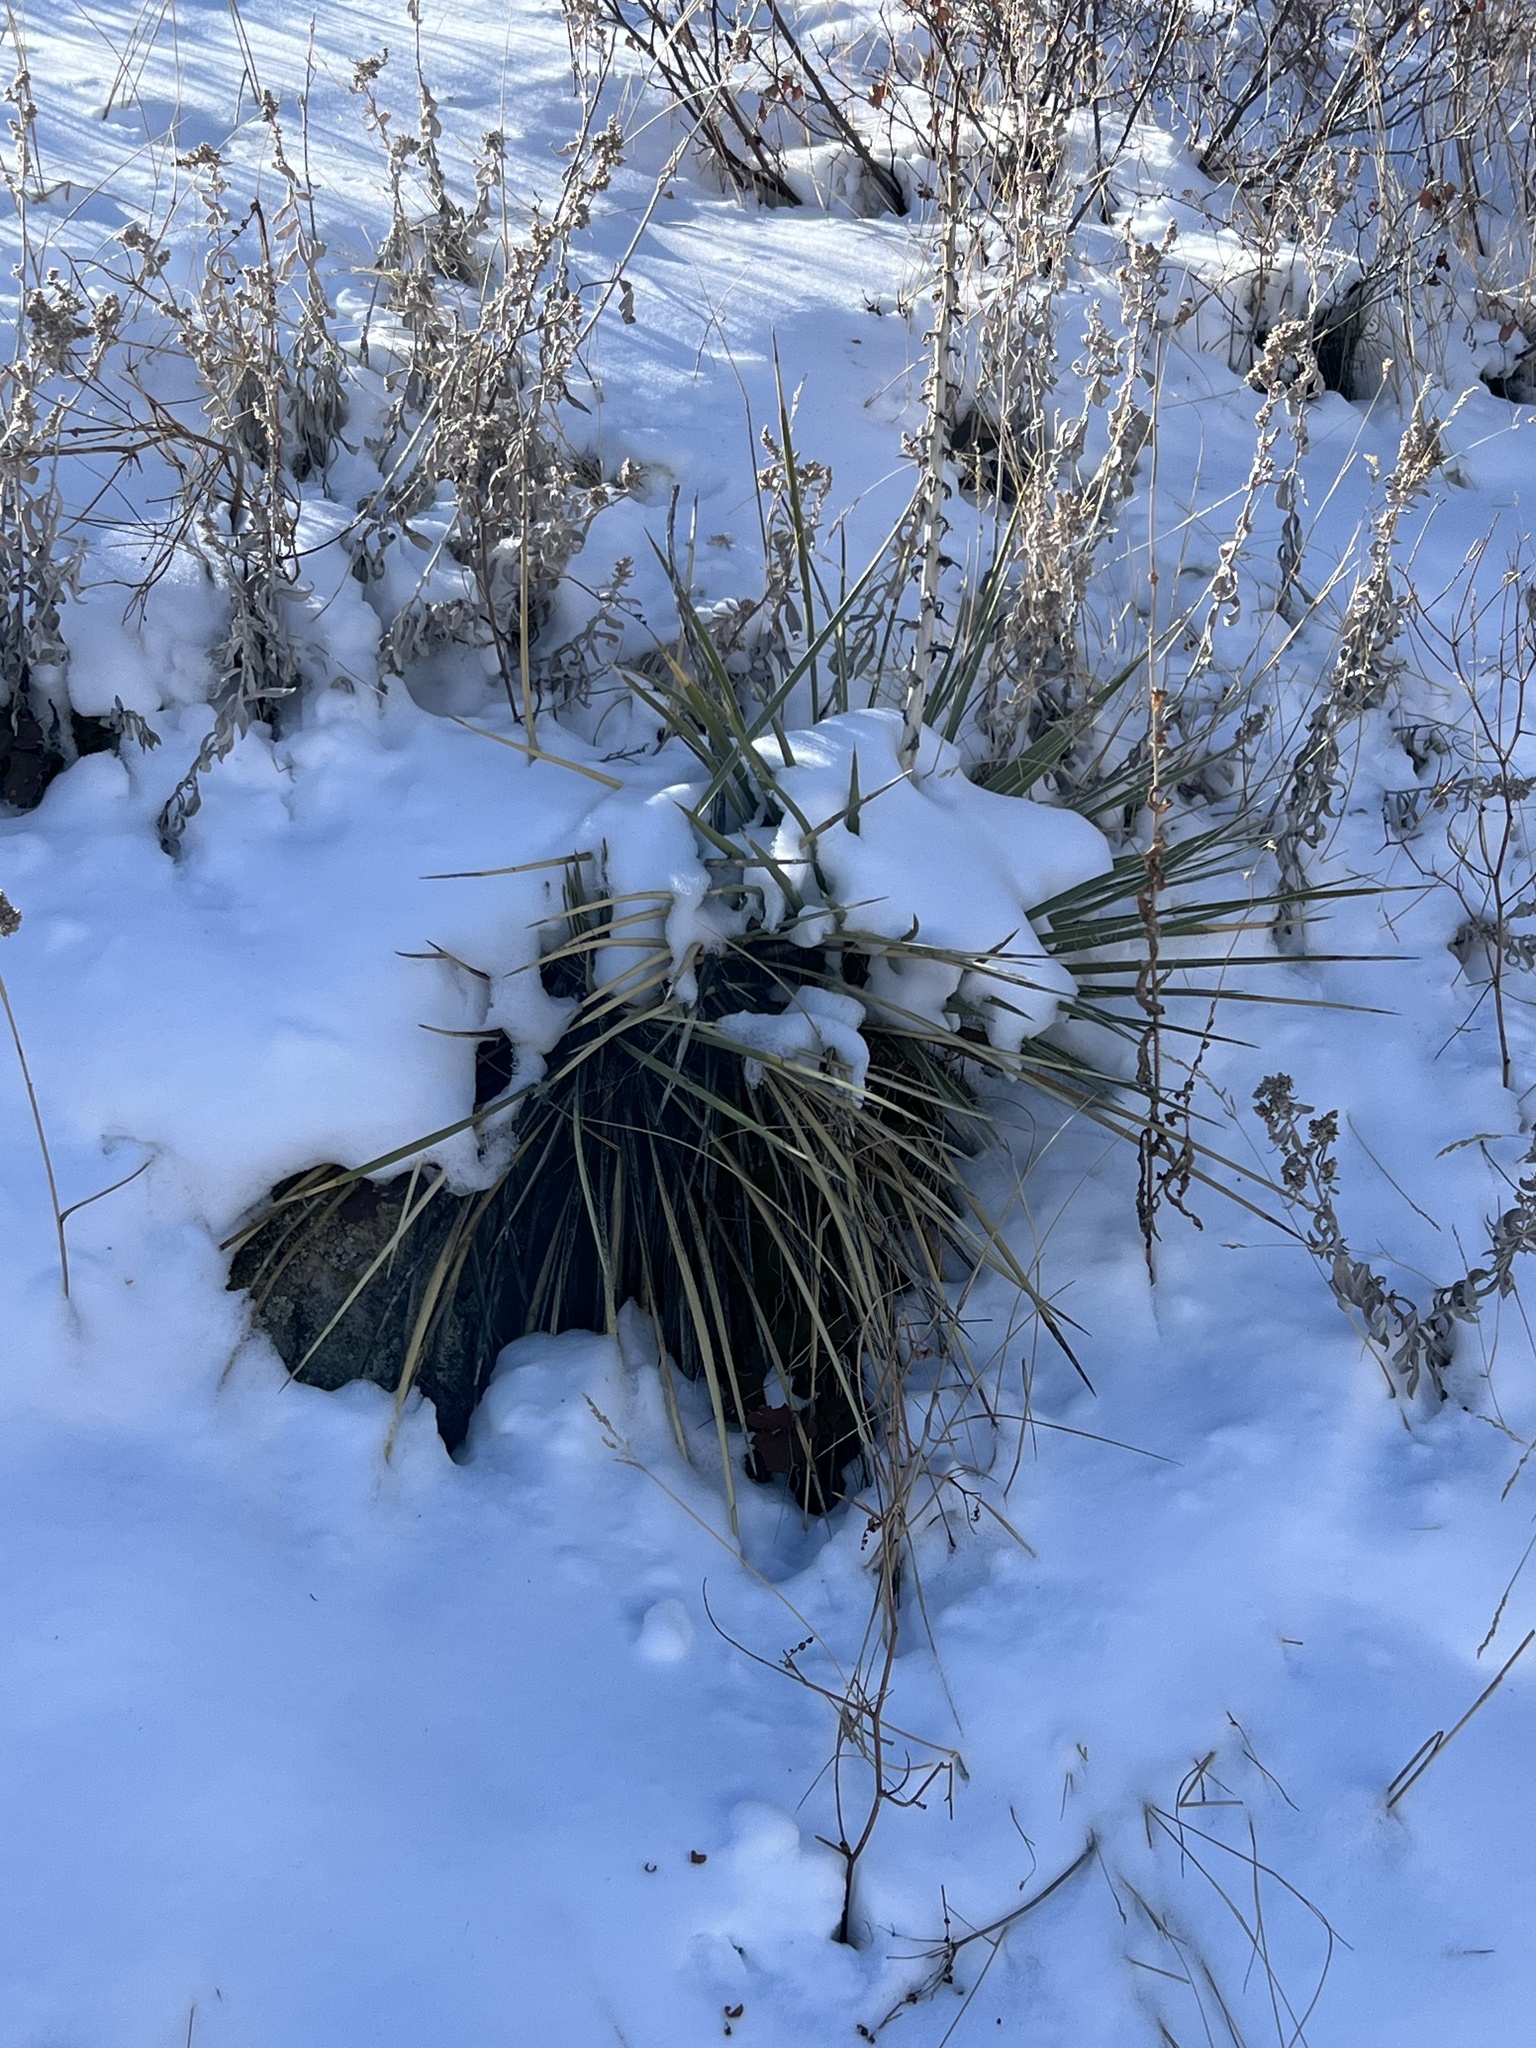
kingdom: Plantae
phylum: Tracheophyta
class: Liliopsida
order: Asparagales
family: Asparagaceae
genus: Yucca
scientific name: Yucca glauca
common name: Great plains yucca
